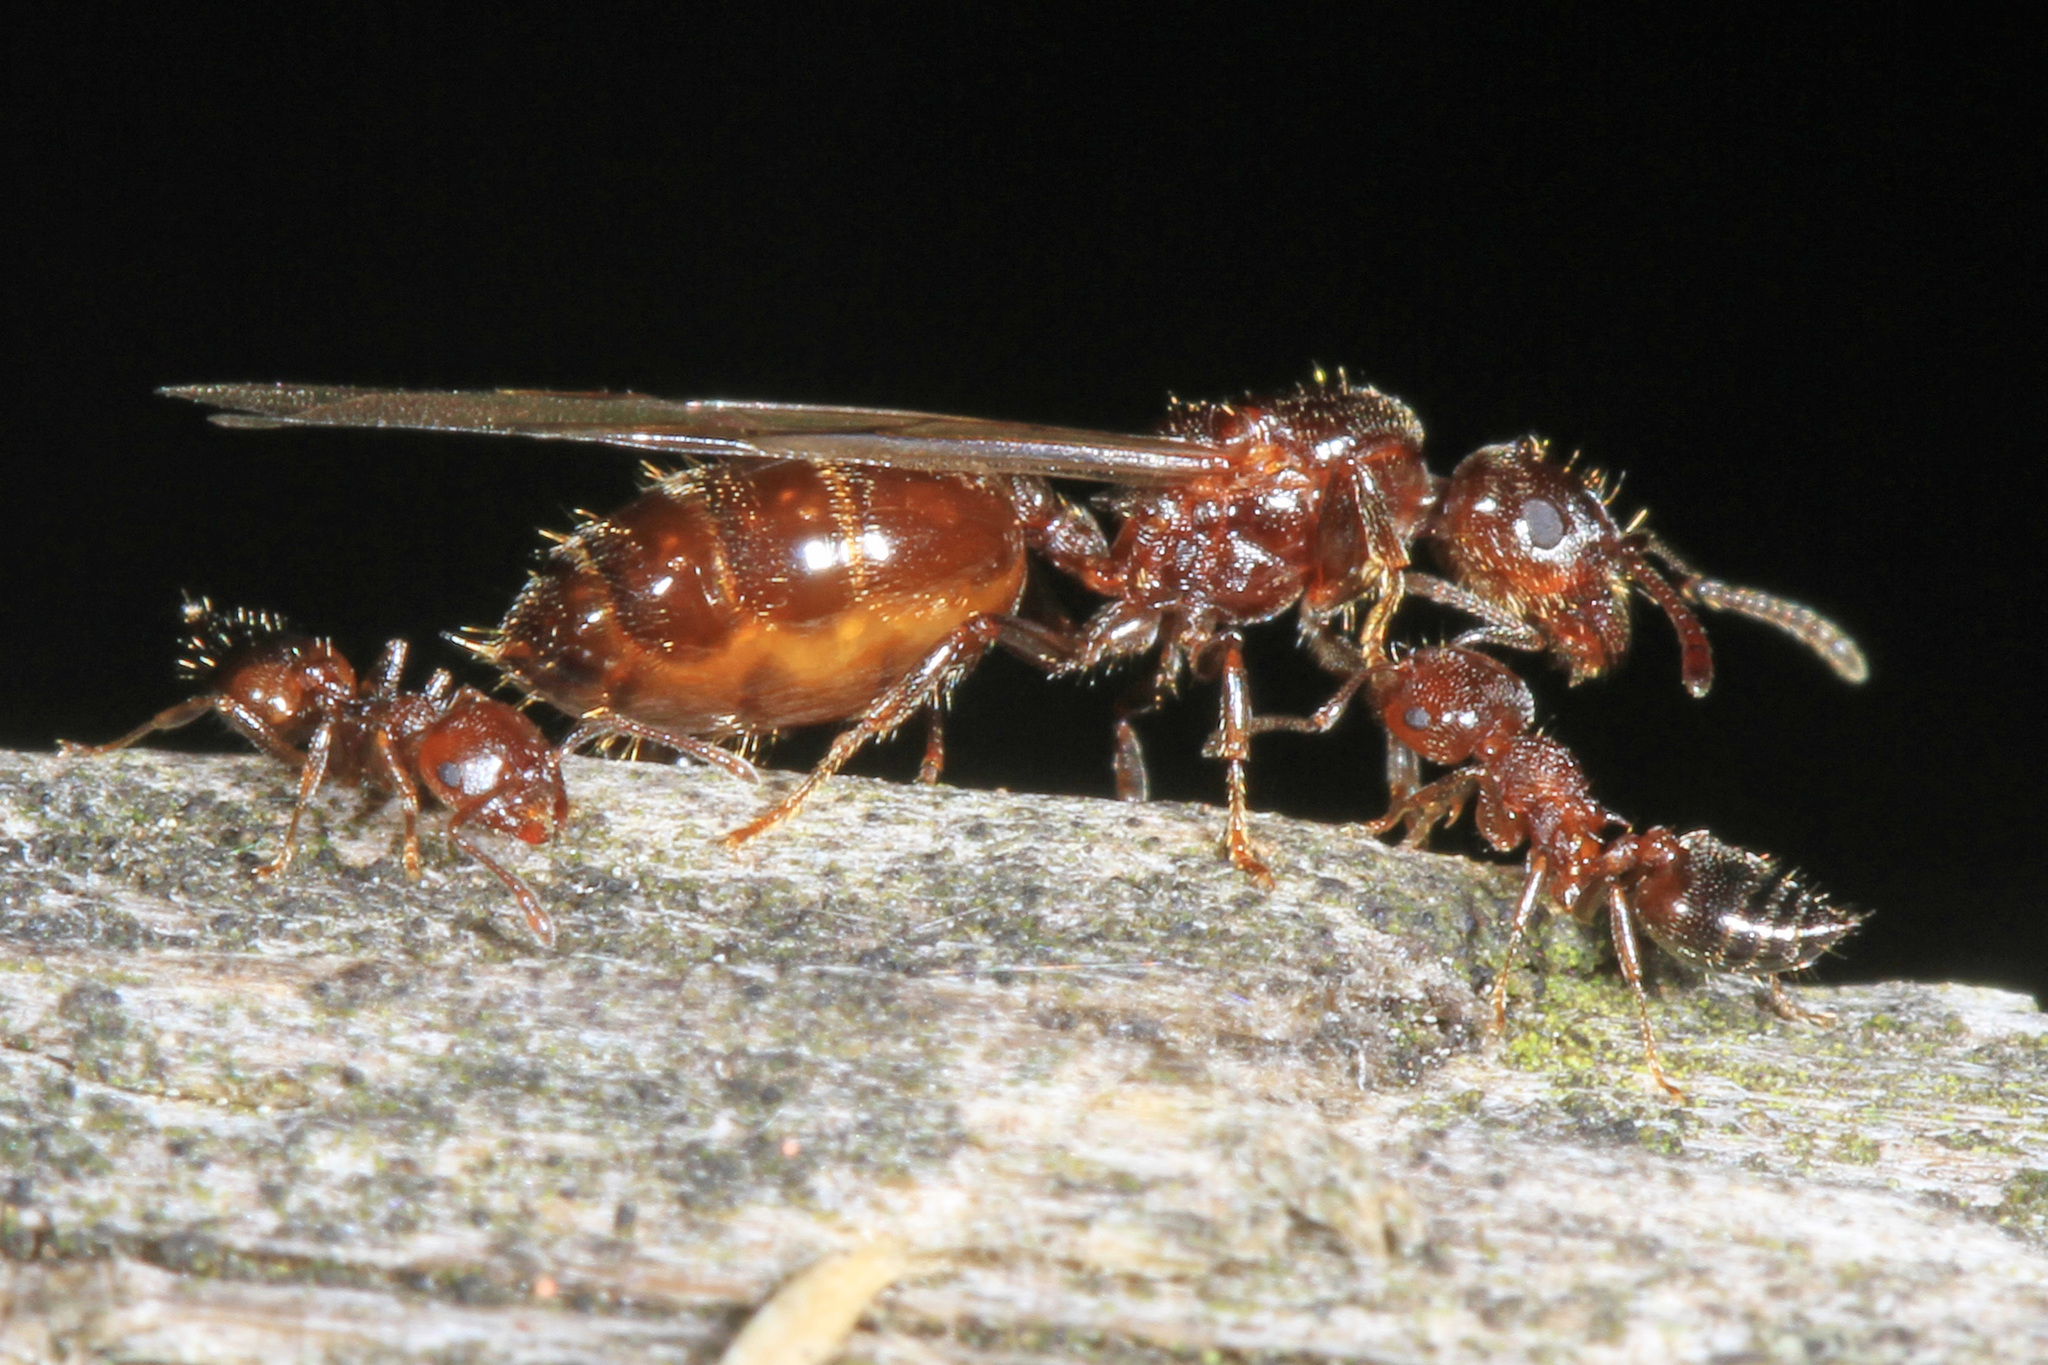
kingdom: Animalia
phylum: Arthropoda
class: Insecta
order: Hymenoptera
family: Formicidae
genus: Crematogaster
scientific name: Crematogaster lineolata
